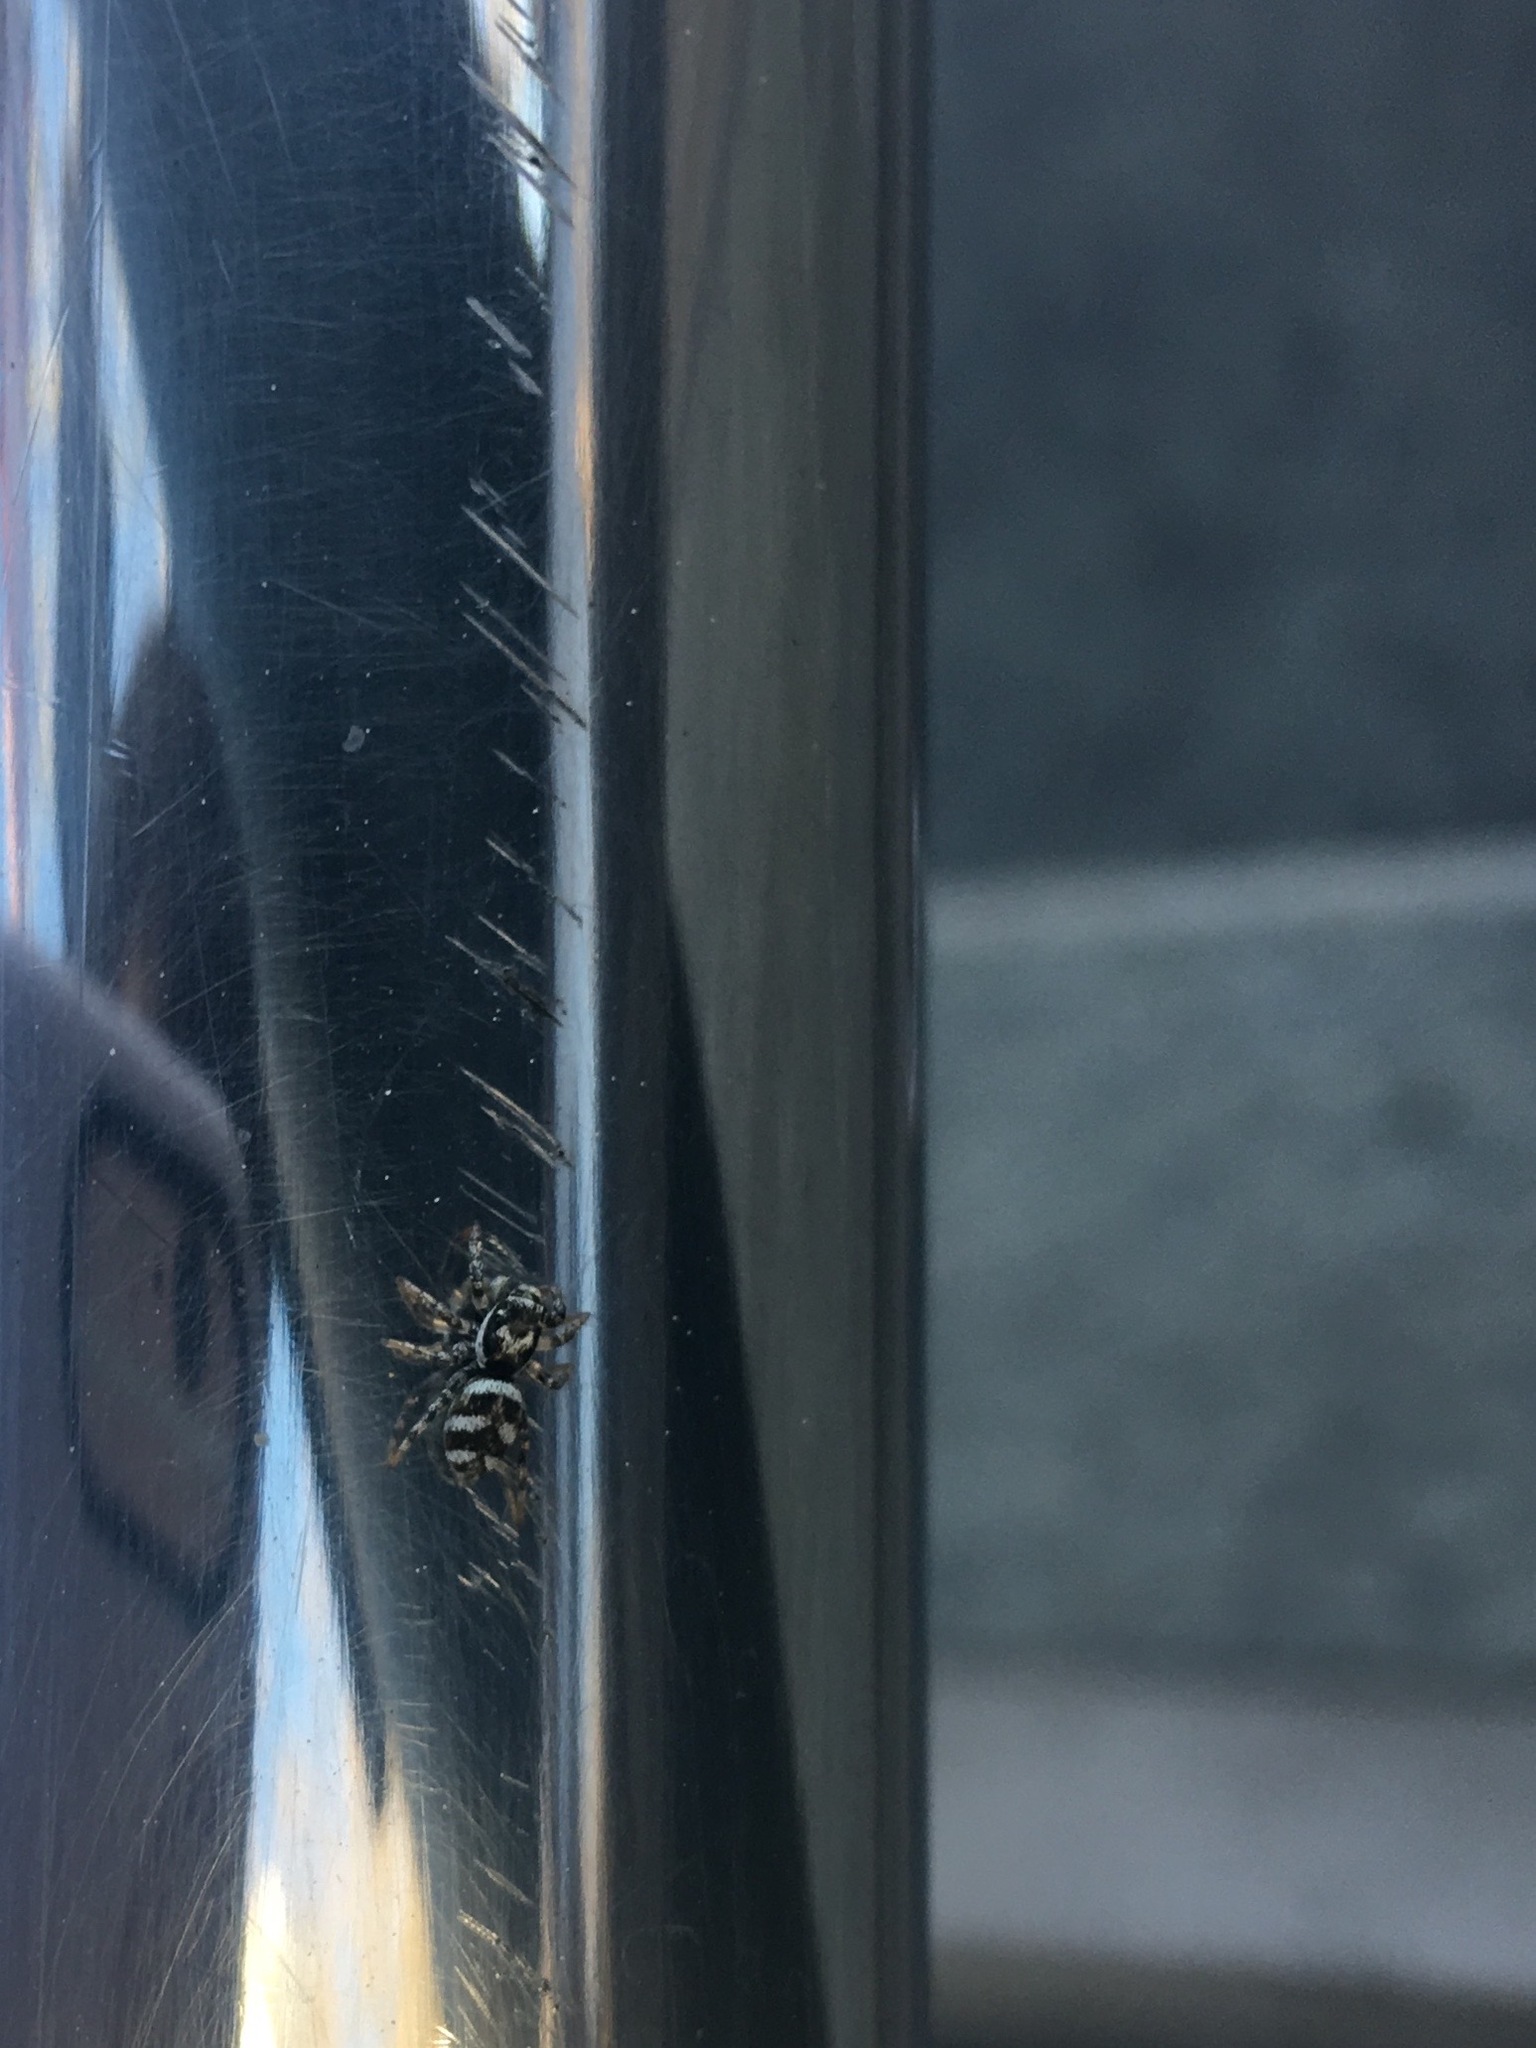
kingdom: Animalia
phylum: Arthropoda
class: Arachnida
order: Araneae
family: Salticidae
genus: Salticus
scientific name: Salticus scenicus
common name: Zebra jumper
